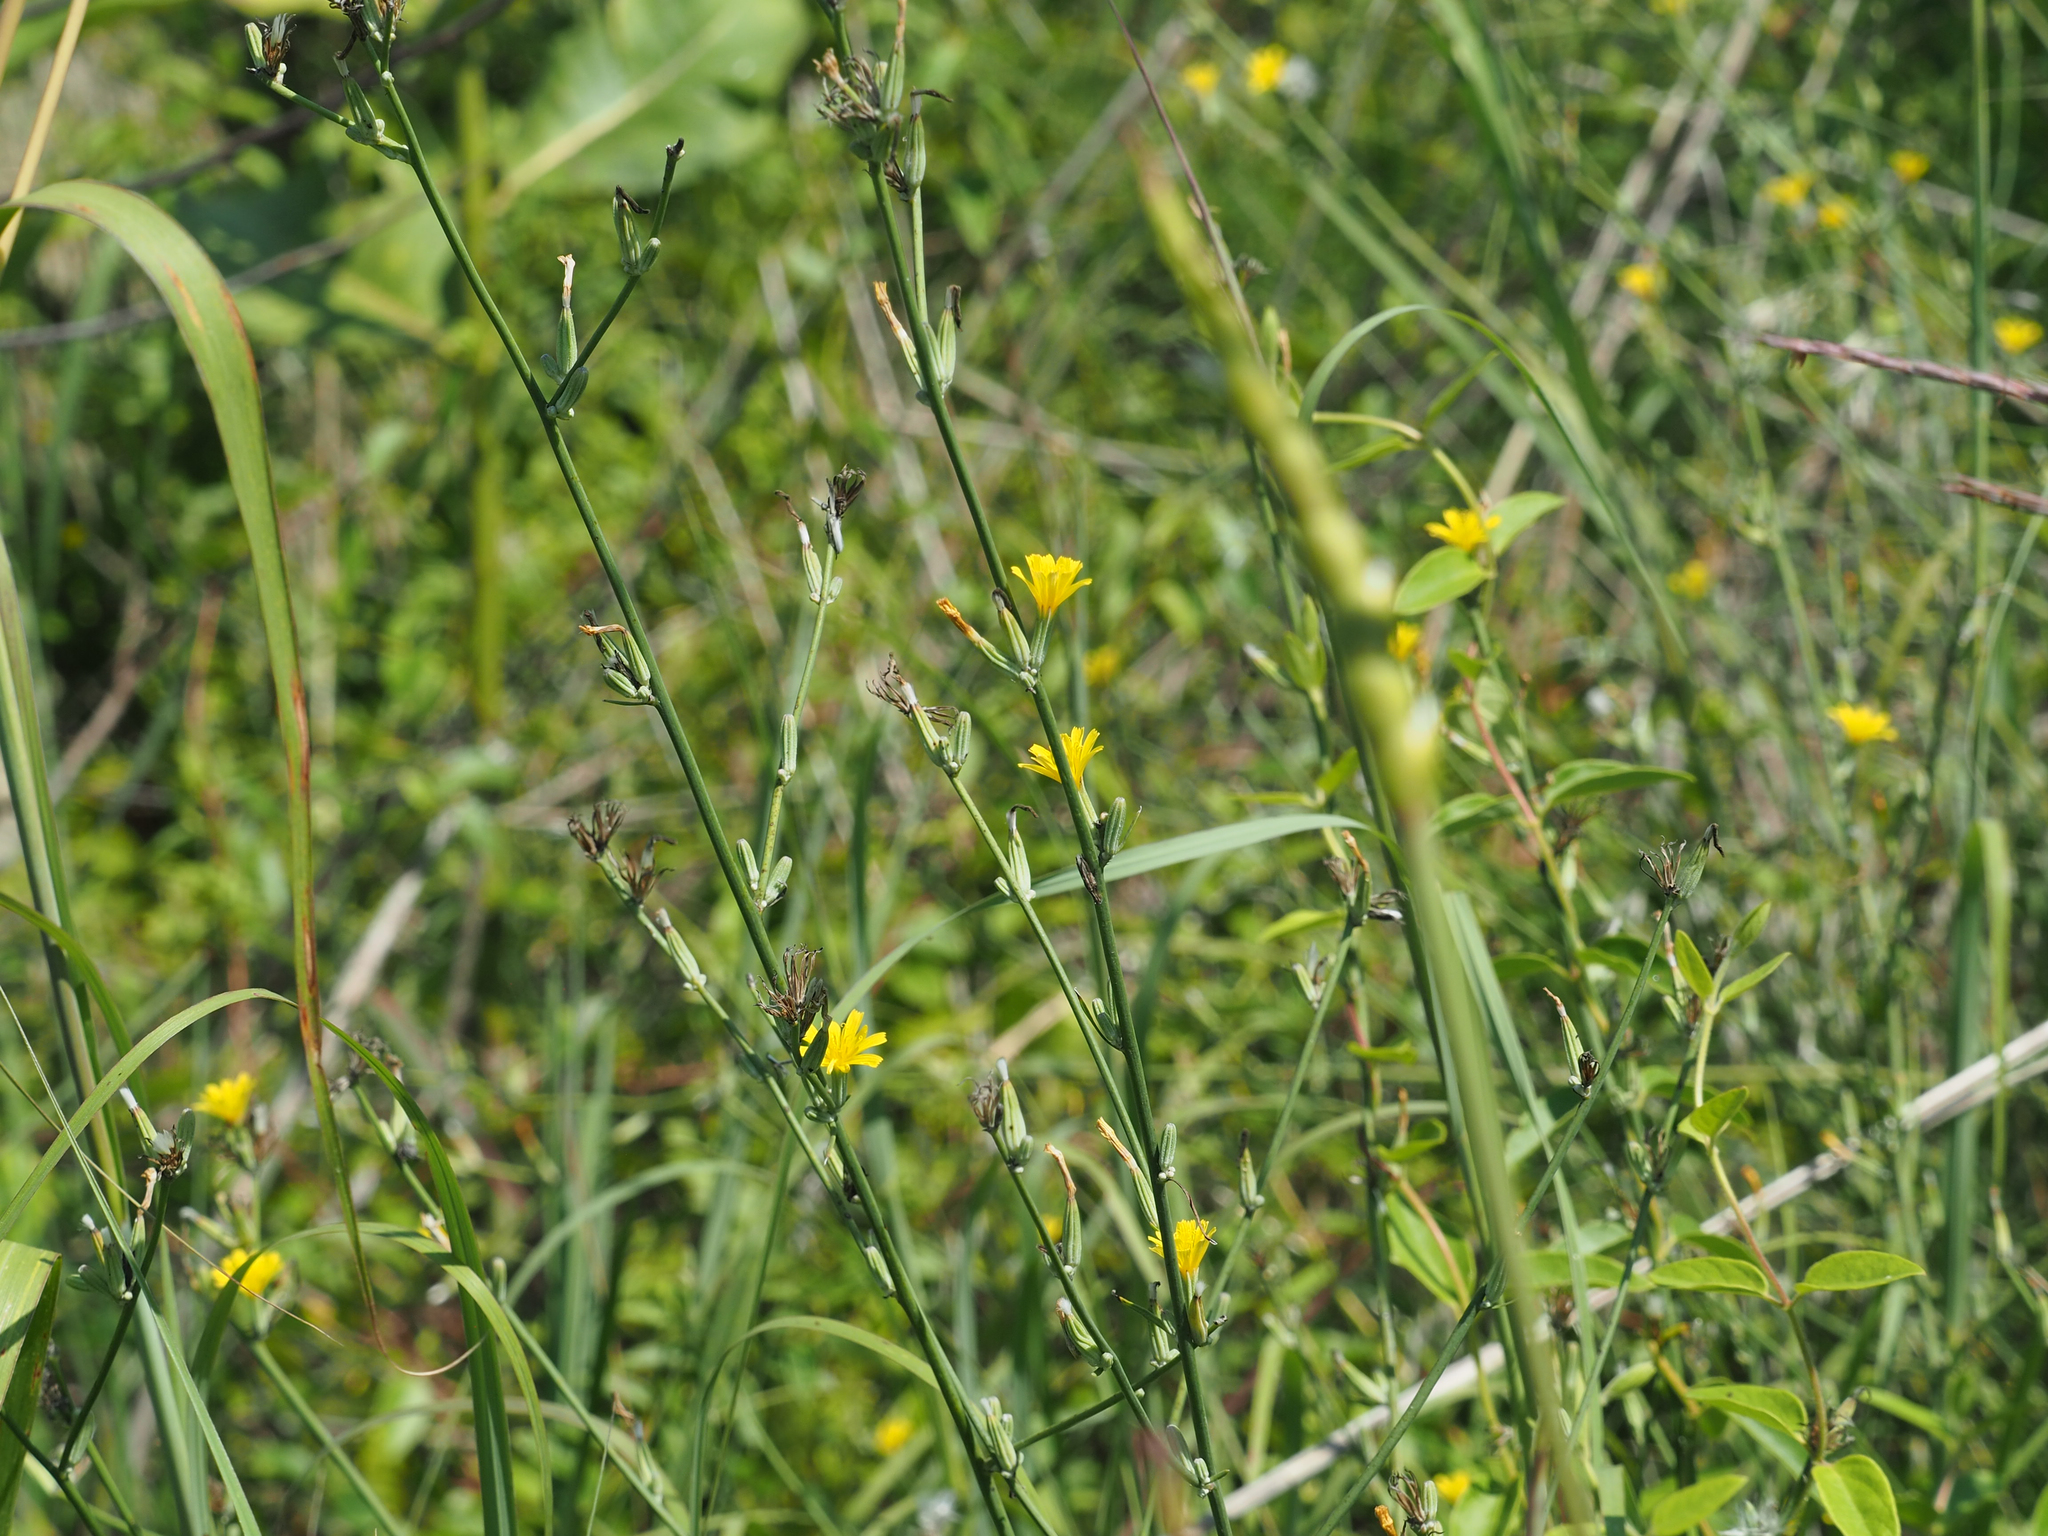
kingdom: Plantae
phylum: Tracheophyta
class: Magnoliopsida
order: Asterales
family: Asteraceae
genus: Chondrilla
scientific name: Chondrilla juncea
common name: Skeleton weed
